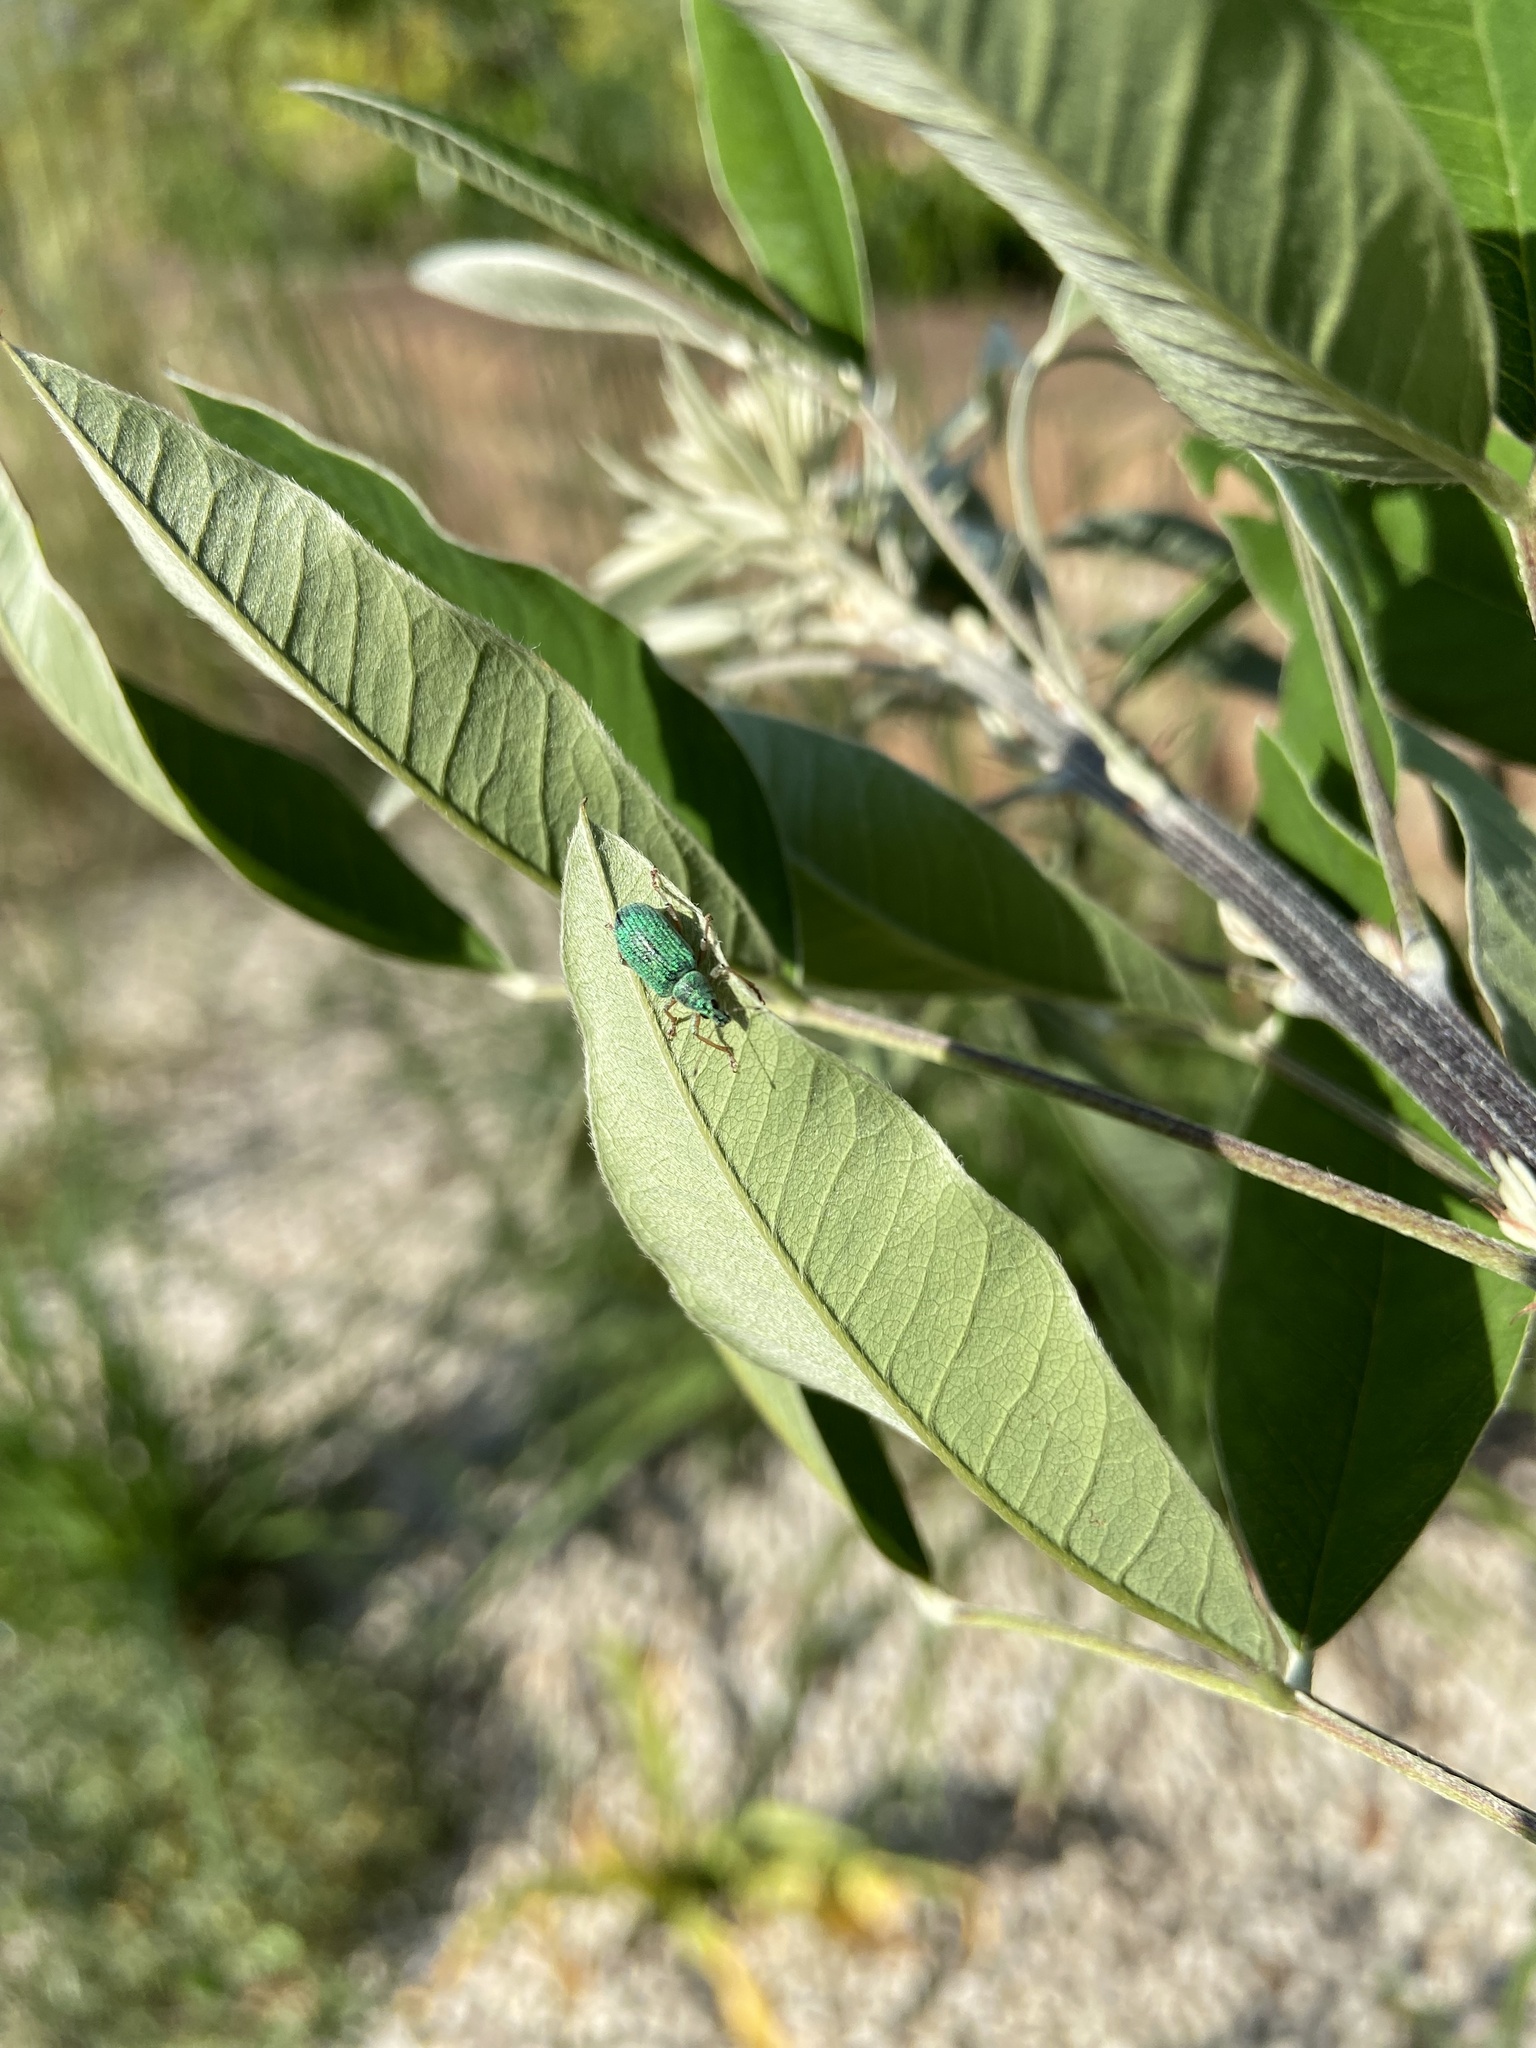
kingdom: Animalia
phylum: Arthropoda
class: Insecta
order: Coleoptera
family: Curculionidae
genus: Polydrusus
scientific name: Polydrusus formosus
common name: Weevil
